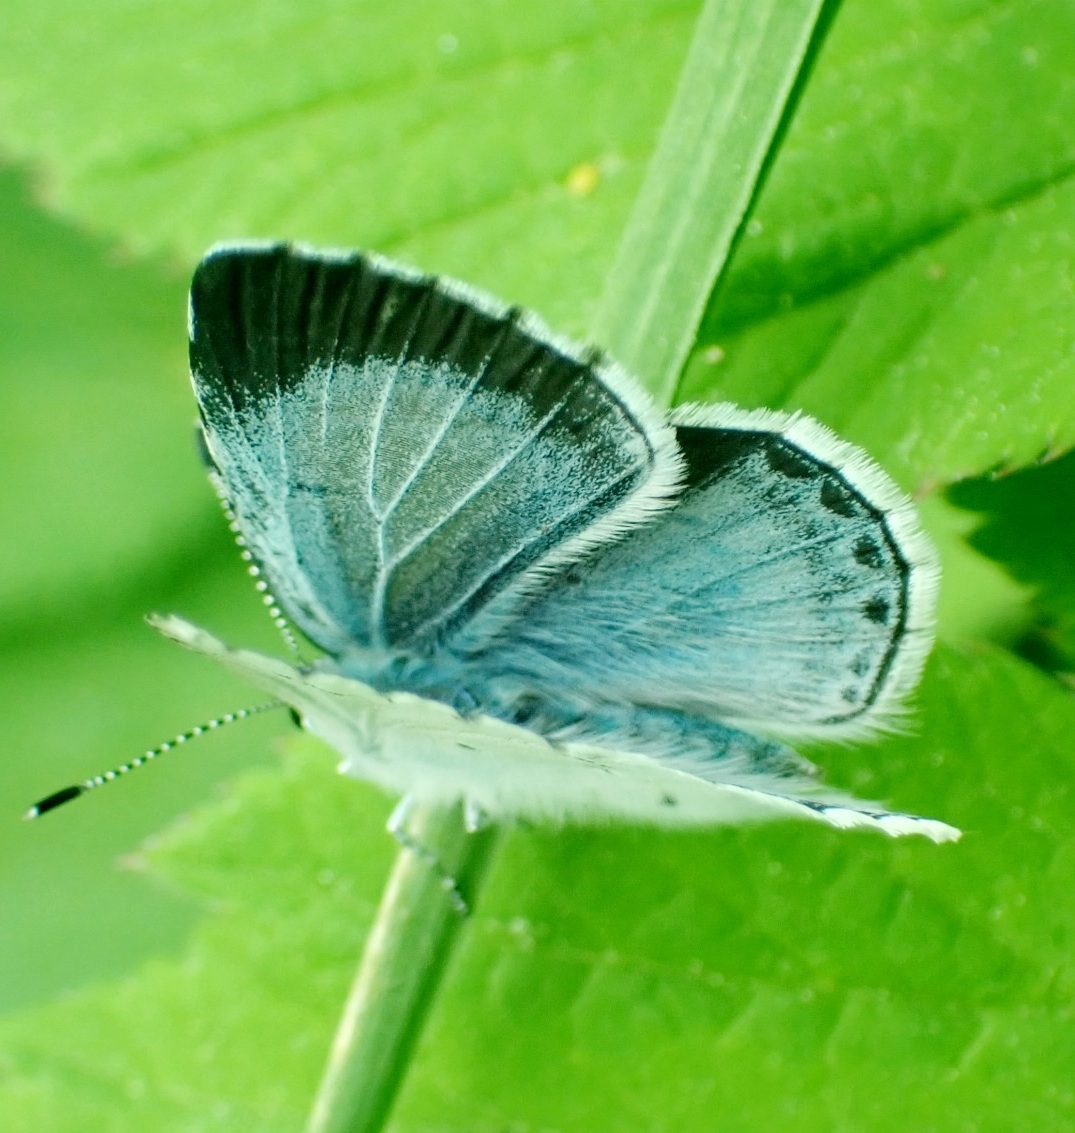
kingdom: Animalia
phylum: Arthropoda
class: Insecta
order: Lepidoptera
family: Lycaenidae
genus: Celastrina
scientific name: Celastrina argiolus
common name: Holly blue
